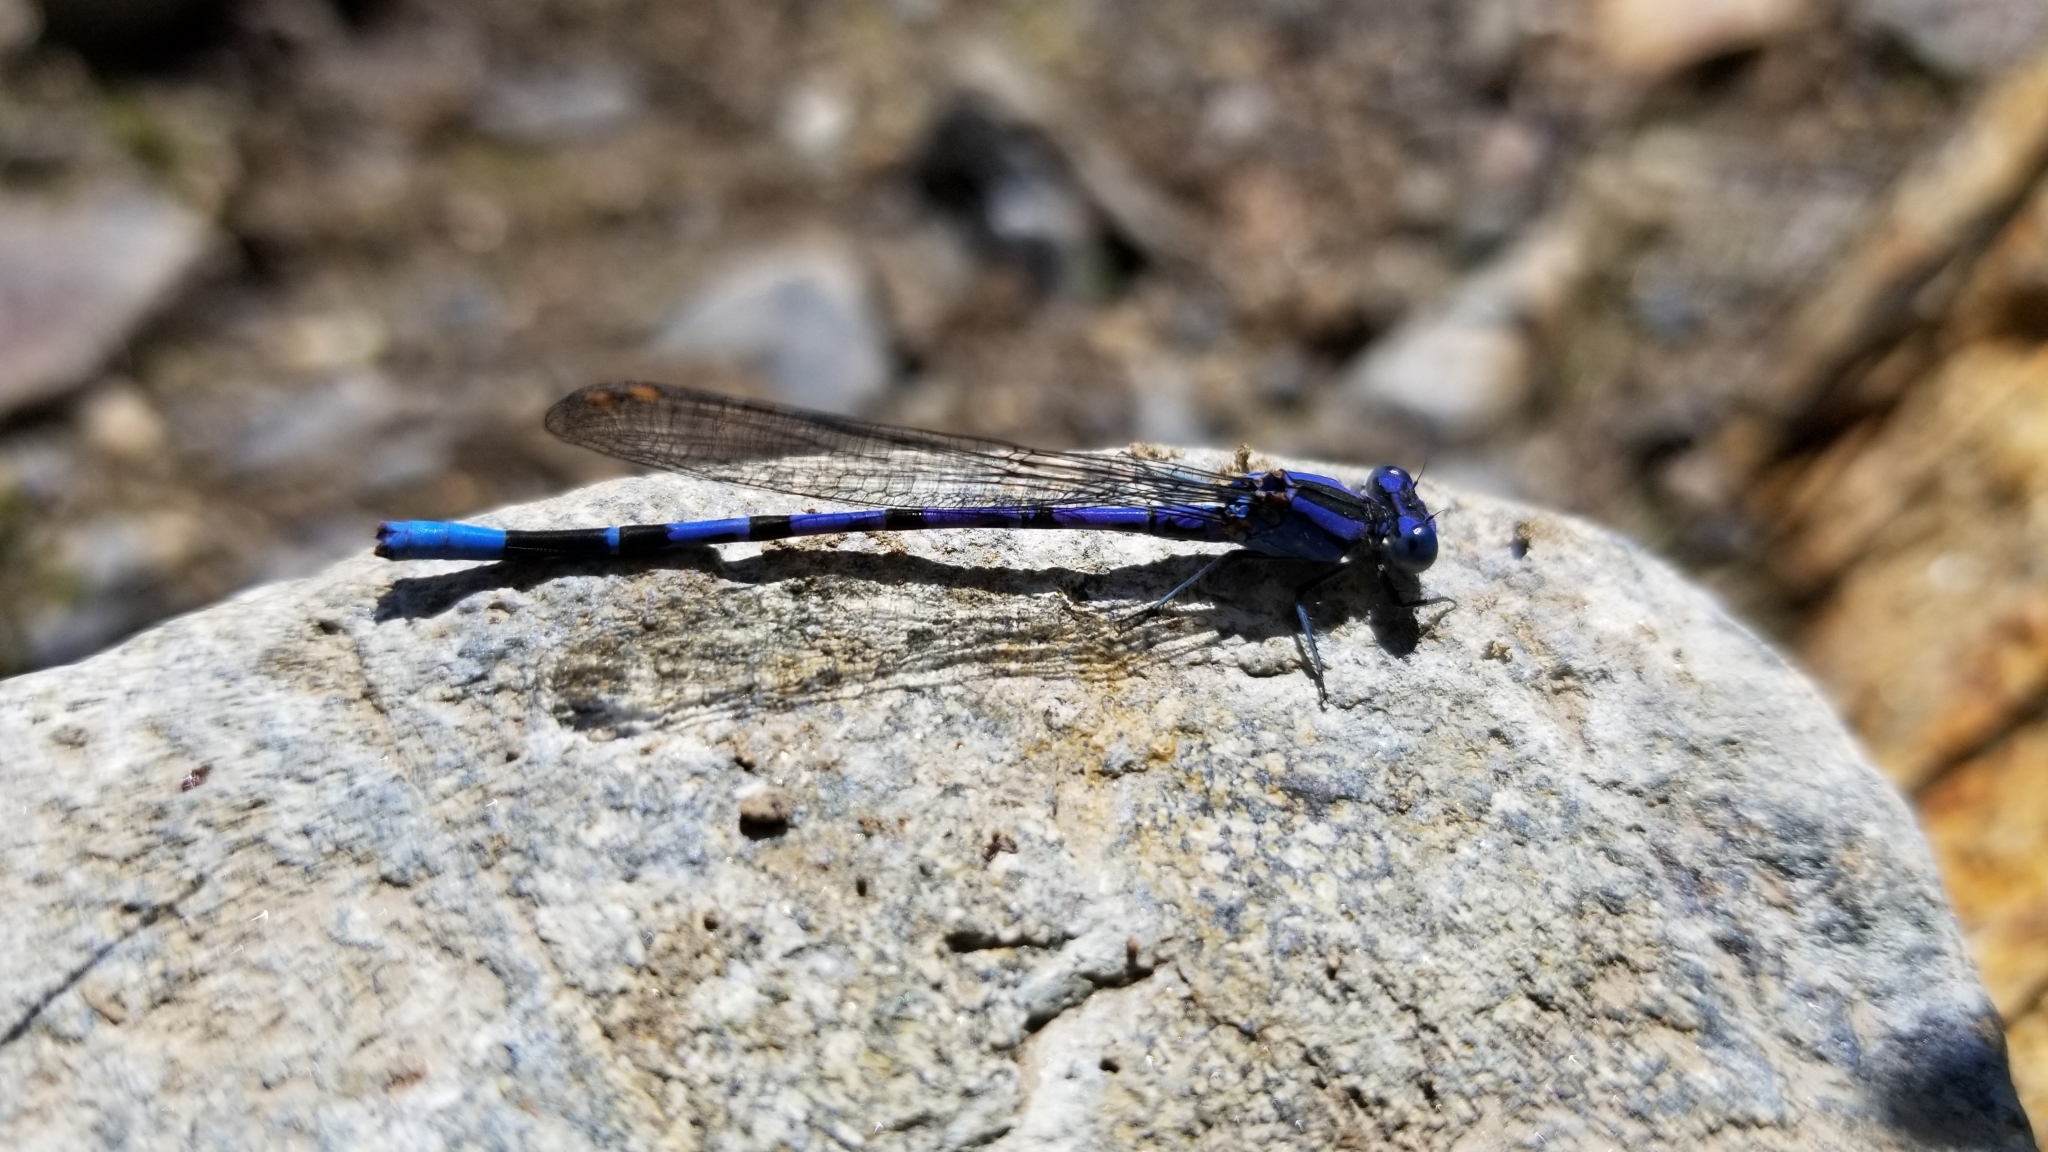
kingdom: Animalia
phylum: Arthropoda
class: Insecta
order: Odonata
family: Coenagrionidae
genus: Argia
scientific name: Argia vivida
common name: Vivid dancer
